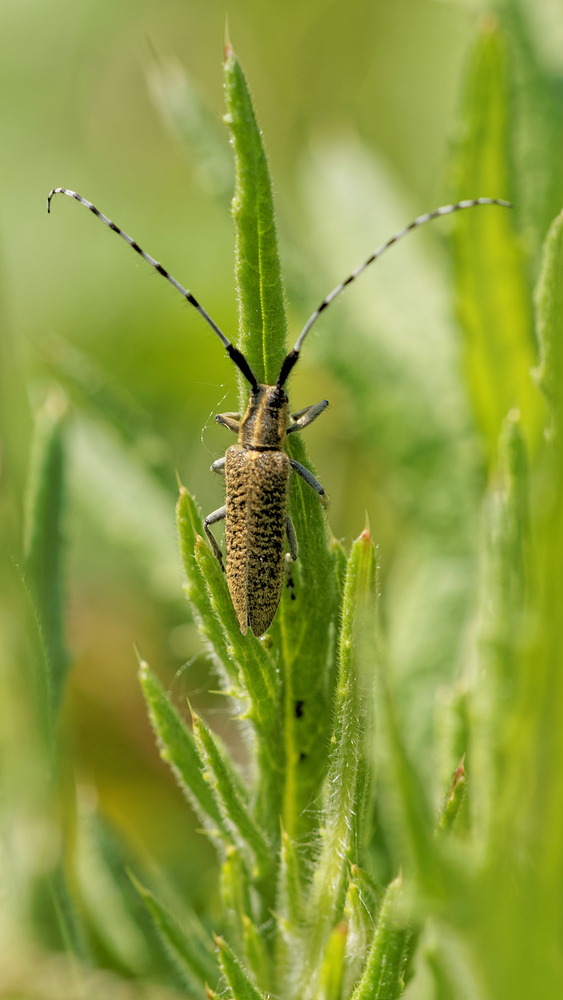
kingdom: Animalia
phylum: Arthropoda
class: Insecta
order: Coleoptera
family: Cerambycidae
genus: Agapanthia
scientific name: Agapanthia villosoviridescens
